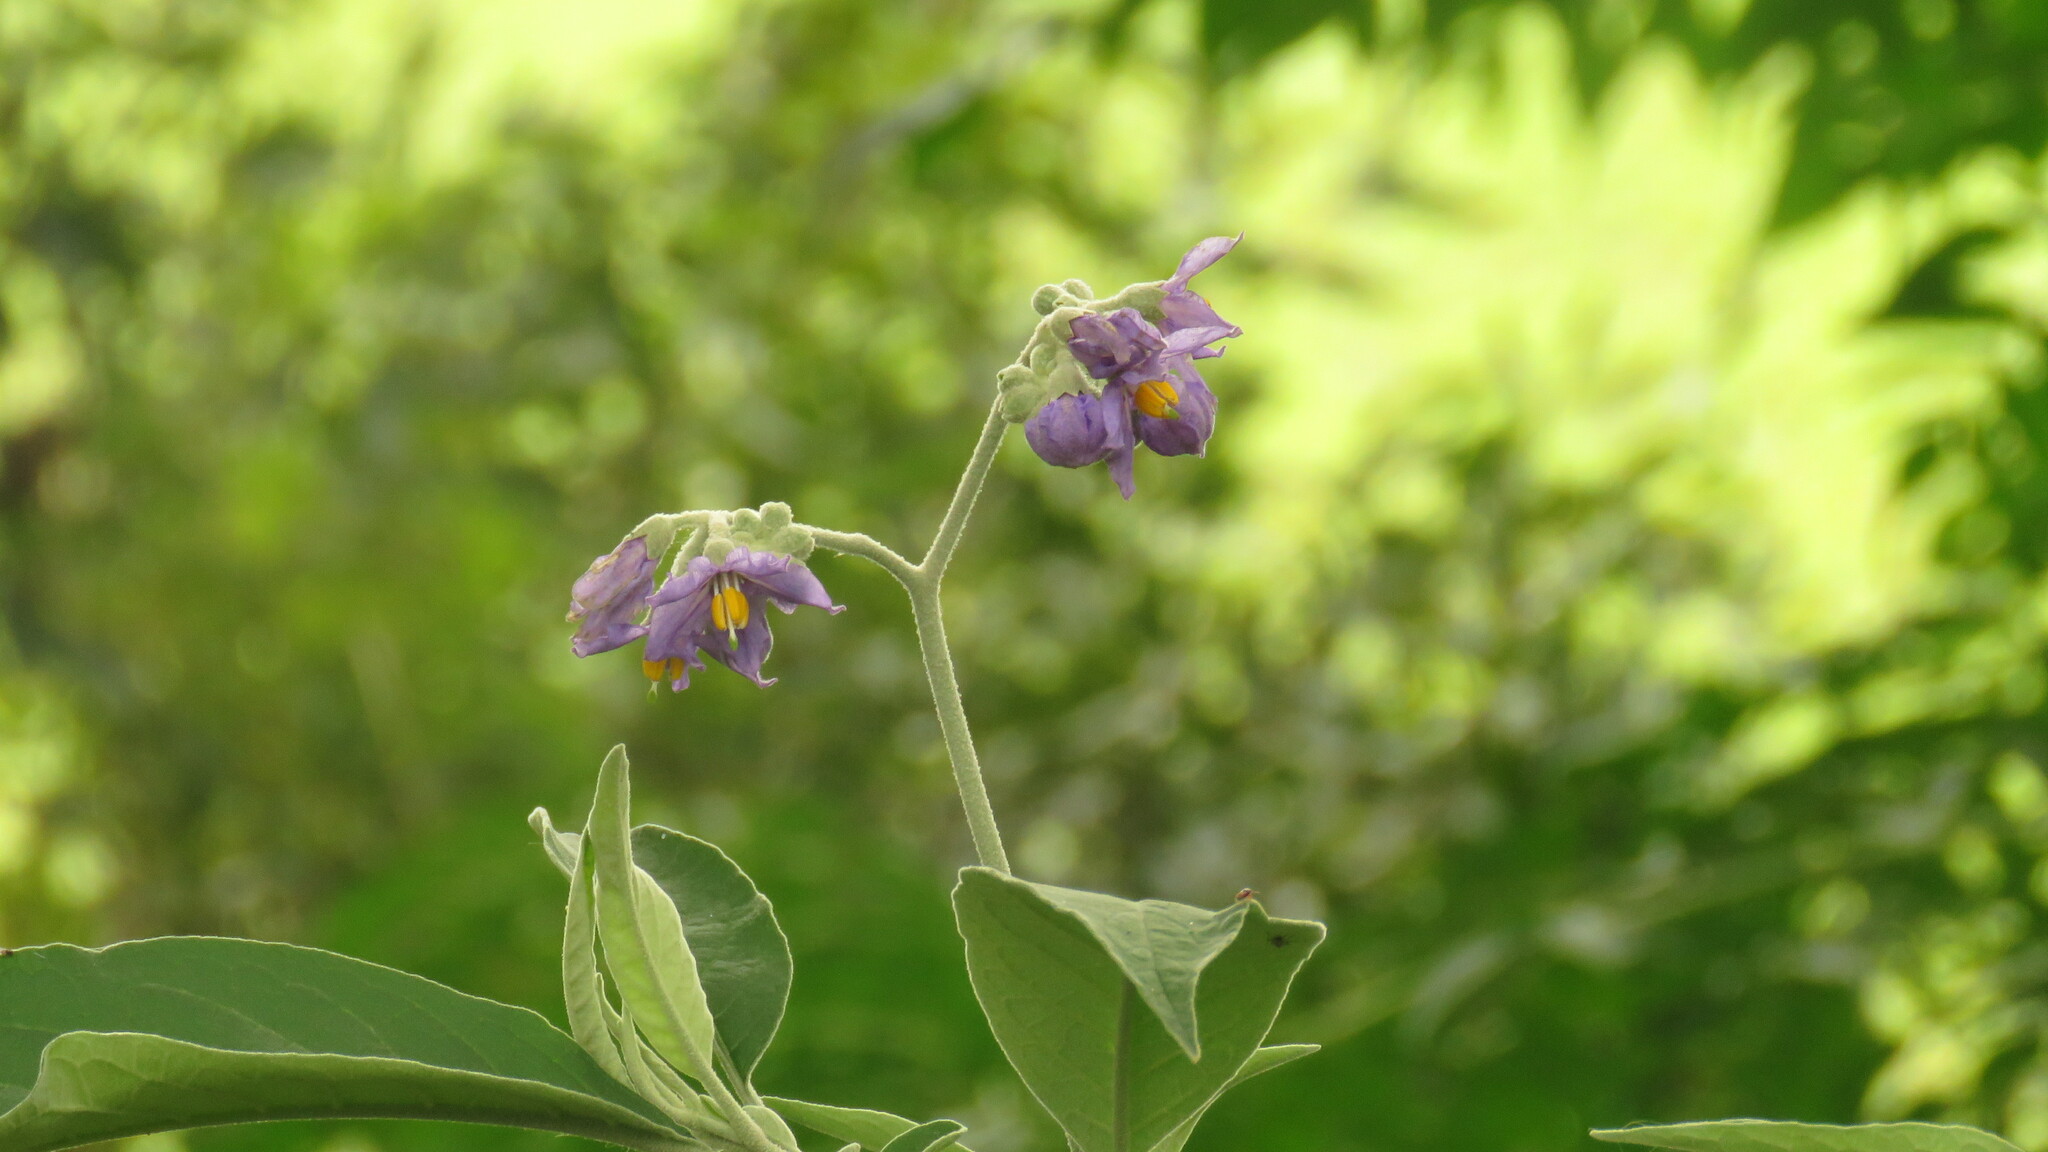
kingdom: Plantae
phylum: Tracheophyta
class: Magnoliopsida
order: Solanales
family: Solanaceae
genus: Solanum
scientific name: Solanum granulosoleprosum
